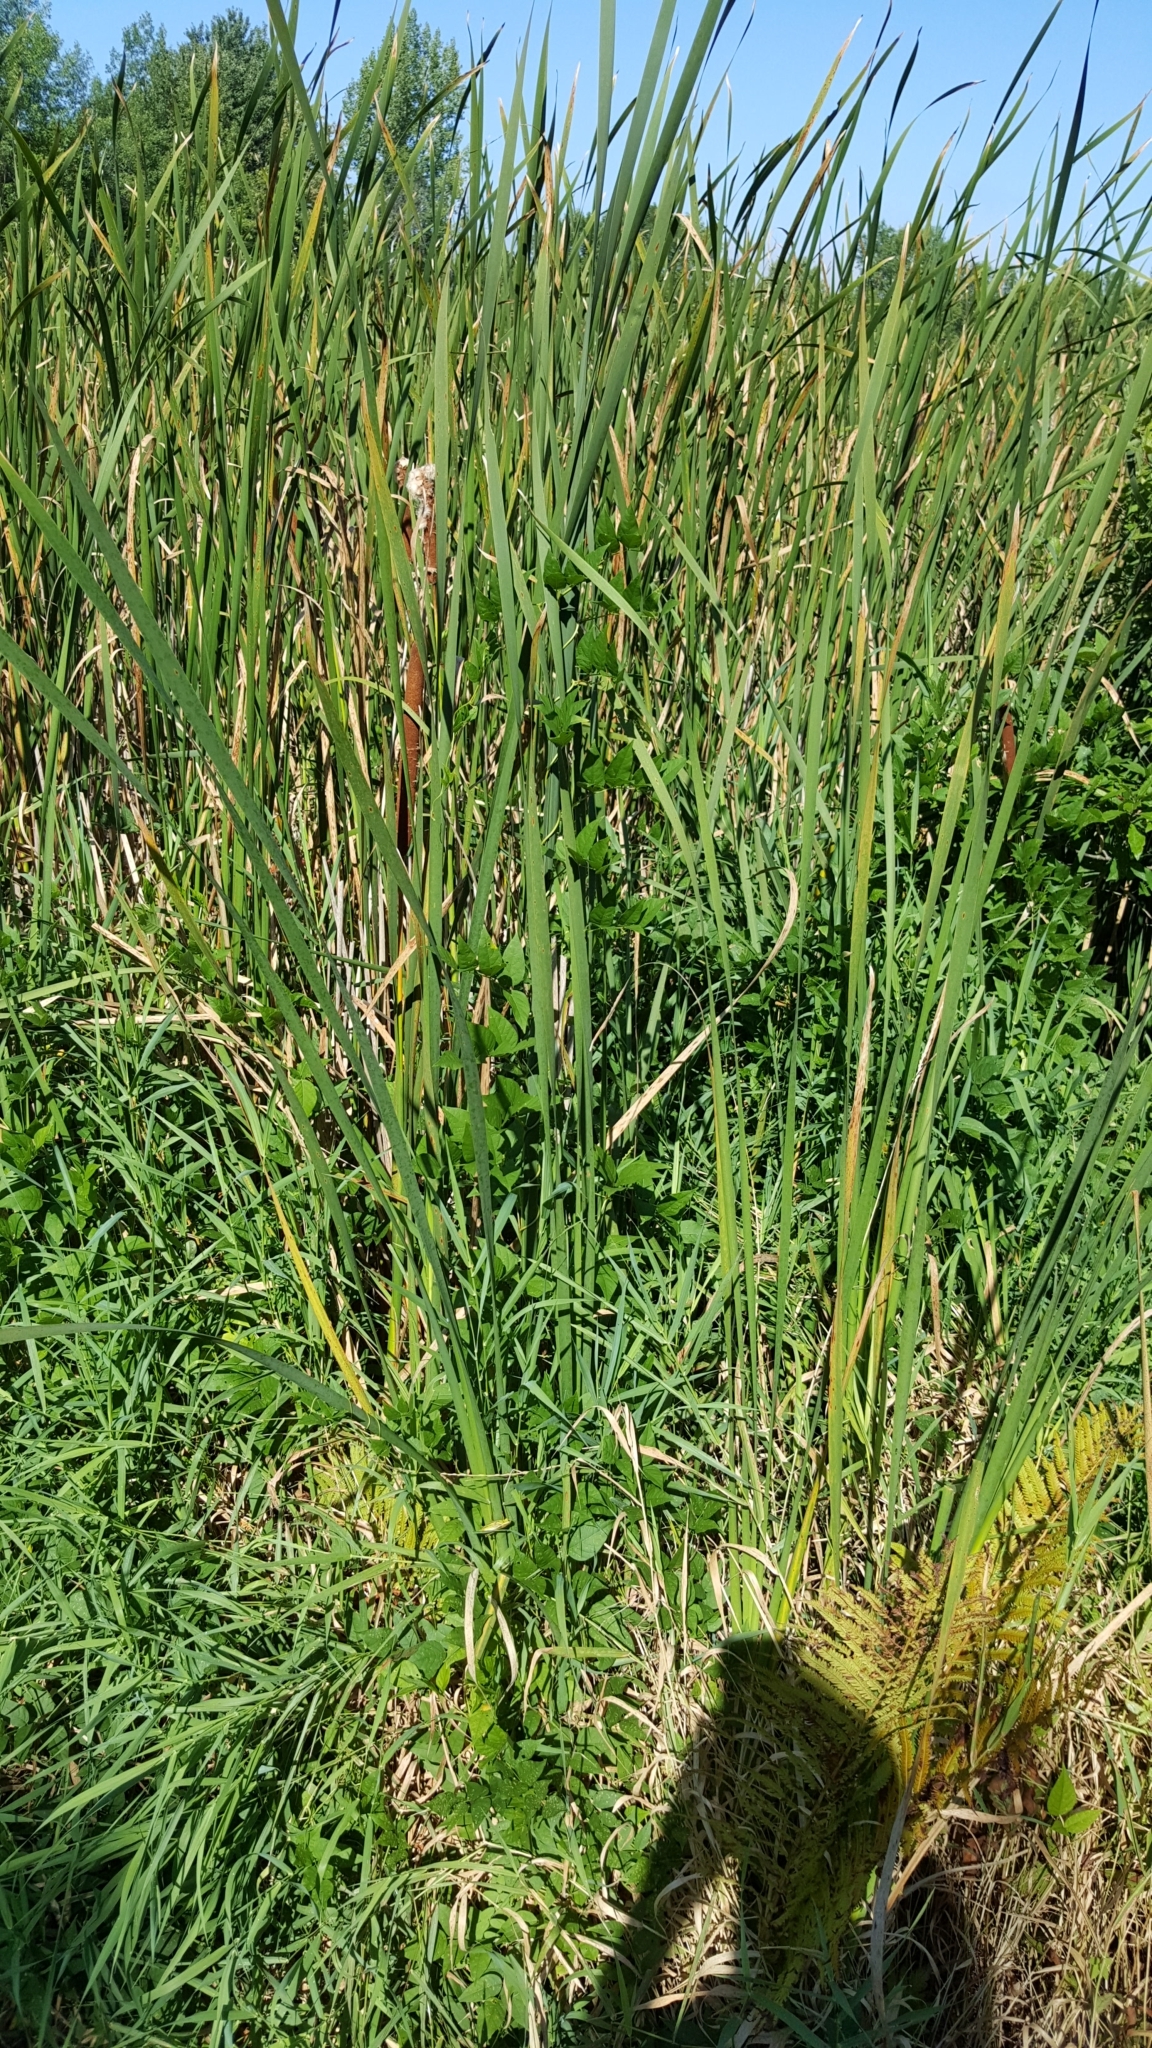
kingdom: Plantae
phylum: Tracheophyta
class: Magnoliopsida
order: Fabales
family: Fabaceae
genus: Apios
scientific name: Apios americana
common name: American potato-bean
